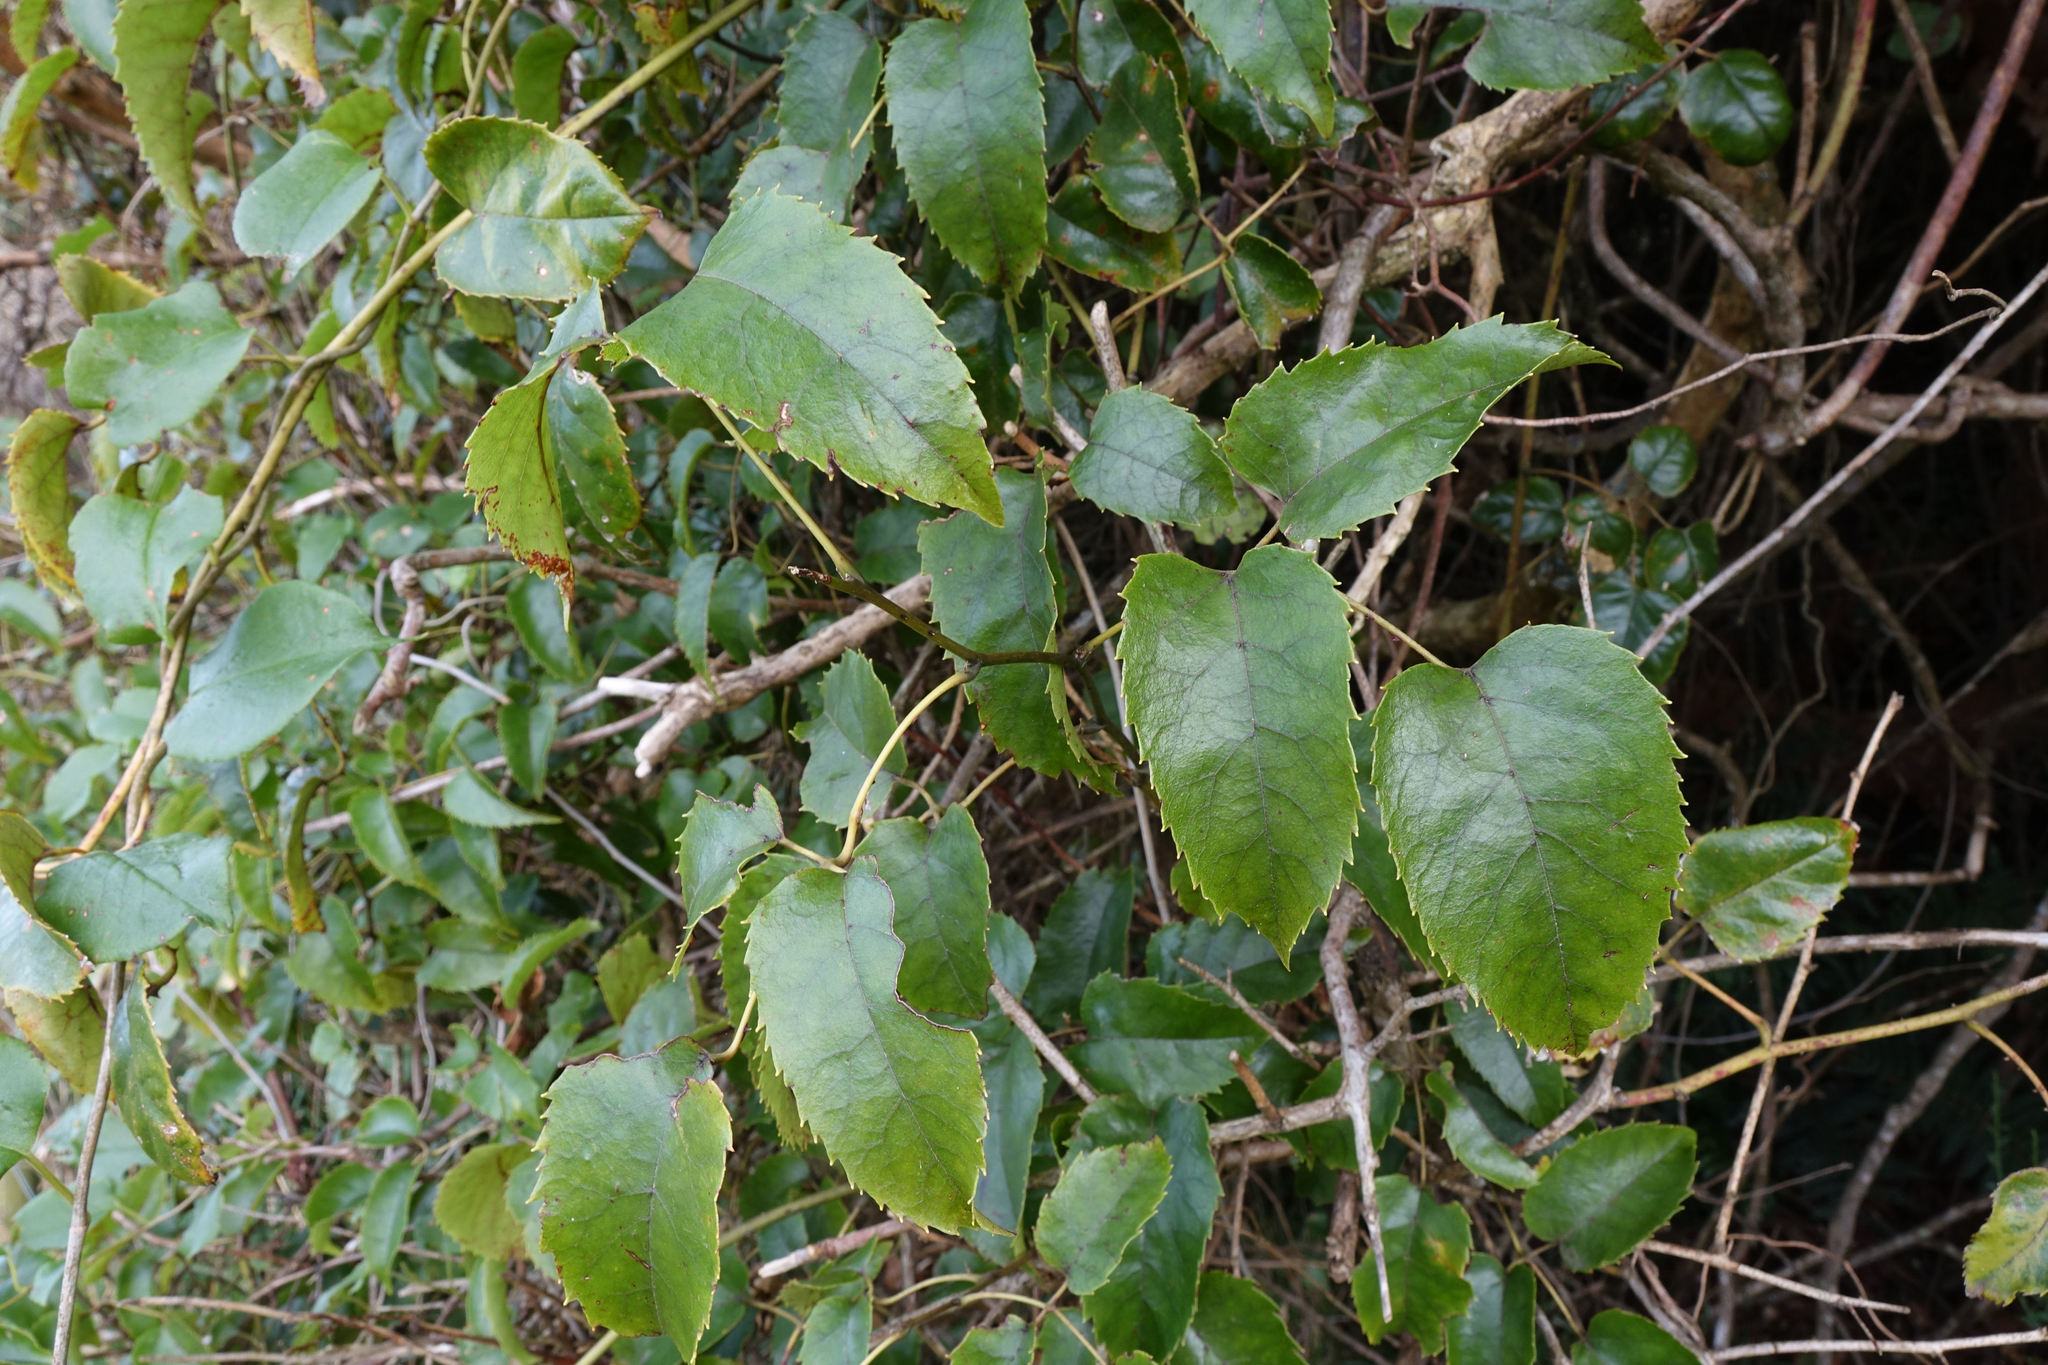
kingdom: Plantae
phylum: Tracheophyta
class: Magnoliopsida
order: Rosales
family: Rosaceae
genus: Rubus
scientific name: Rubus cissoides
